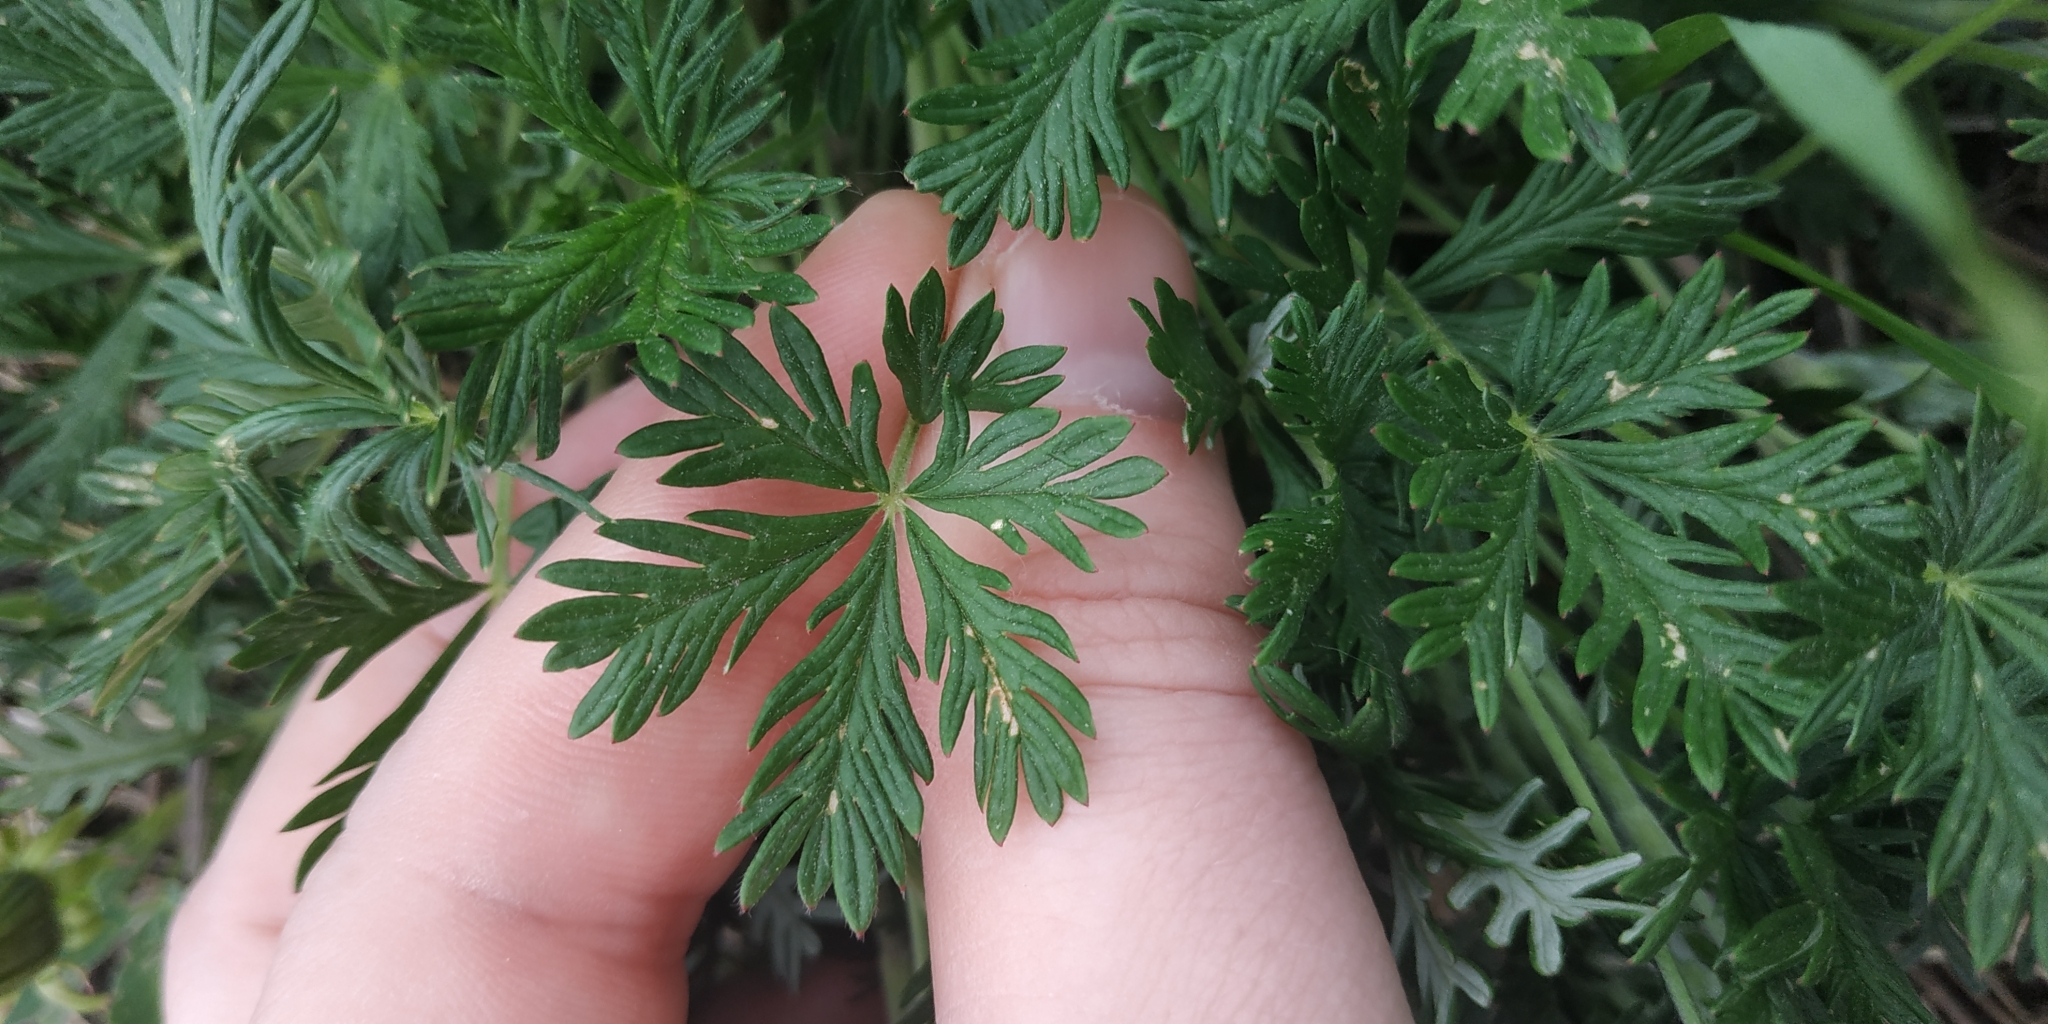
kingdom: Plantae
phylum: Tracheophyta
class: Magnoliopsida
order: Rosales
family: Rosaceae
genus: Potentilla
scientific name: Potentilla angarensis
